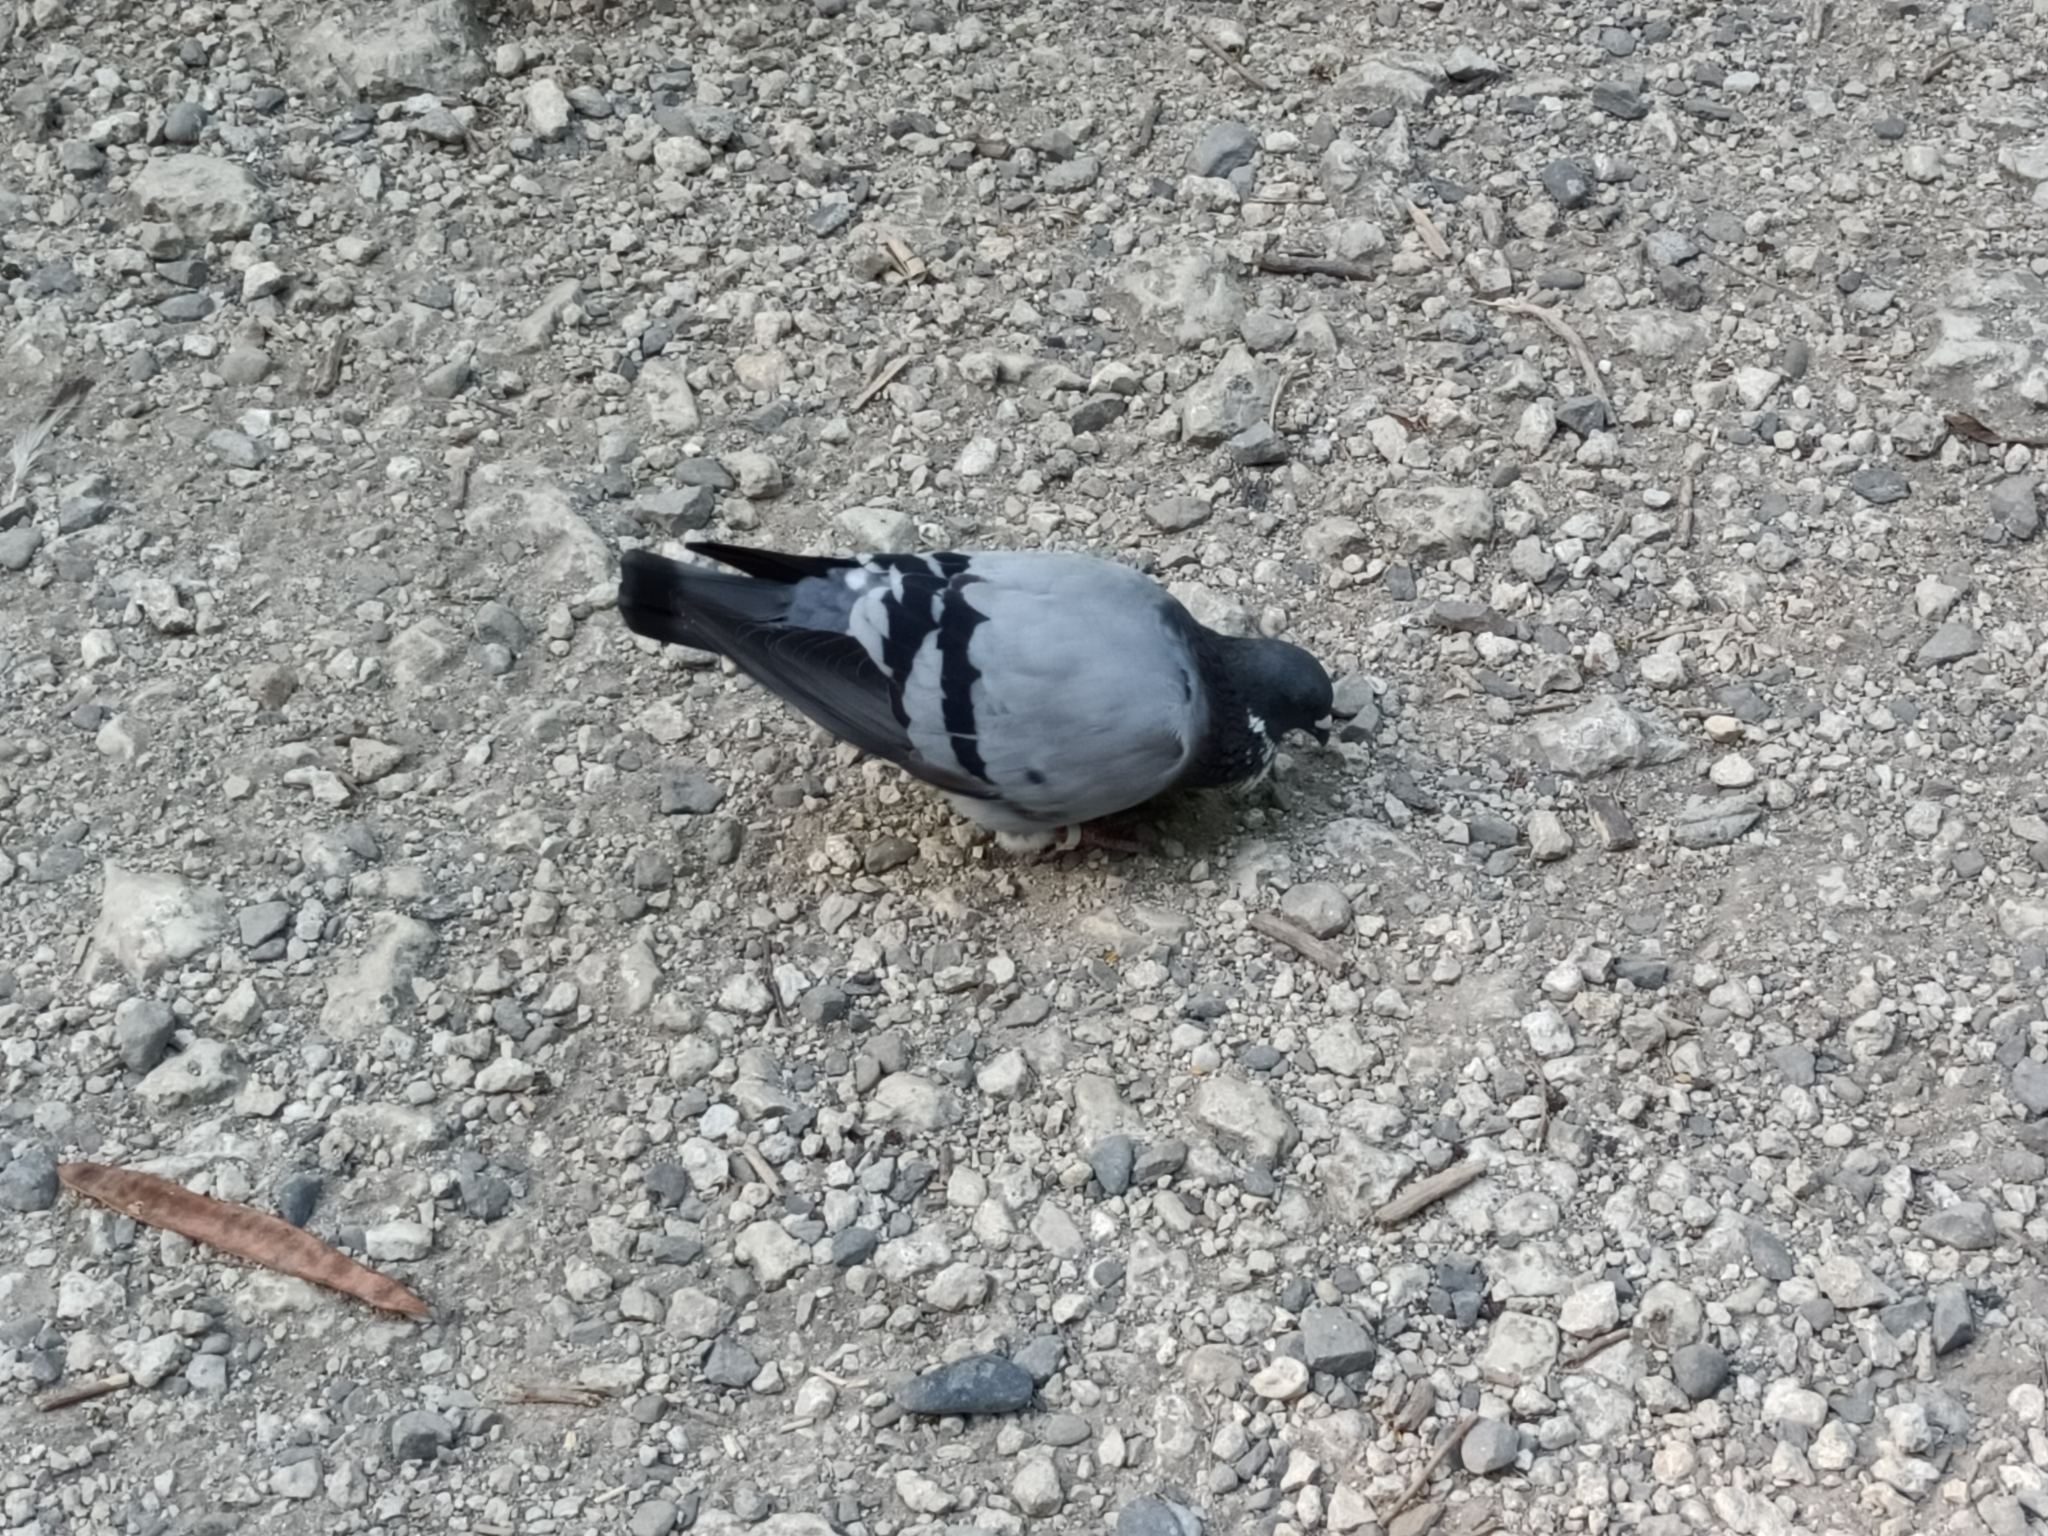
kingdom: Animalia
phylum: Chordata
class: Aves
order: Columbiformes
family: Columbidae
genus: Columba
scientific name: Columba livia
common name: Rock pigeon
